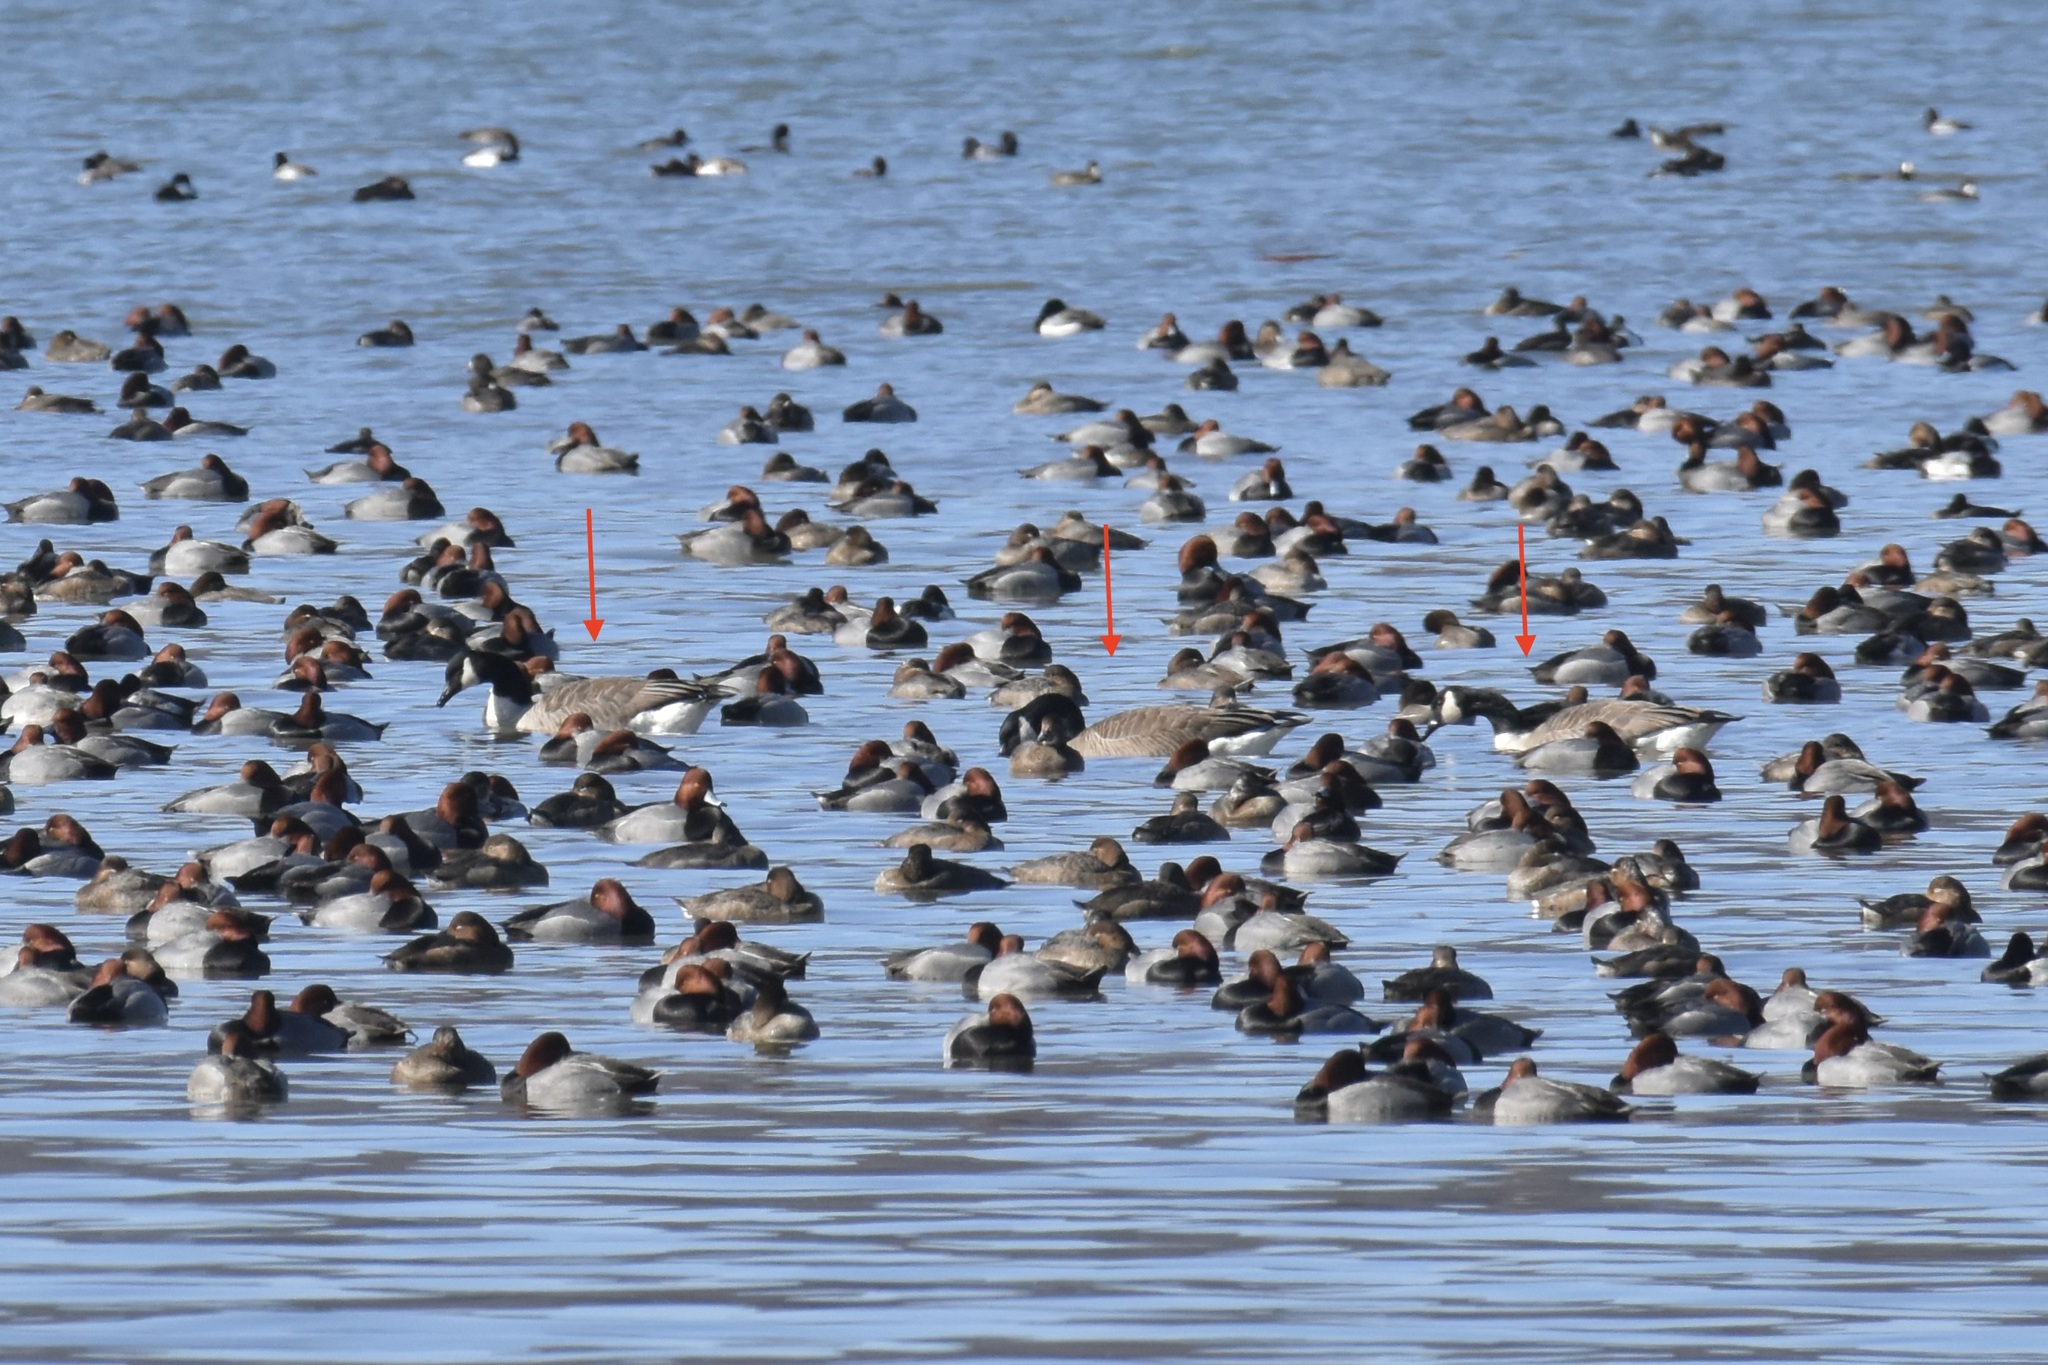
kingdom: Animalia
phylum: Chordata
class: Aves
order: Anseriformes
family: Anatidae
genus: Branta
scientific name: Branta canadensis
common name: Canada goose
